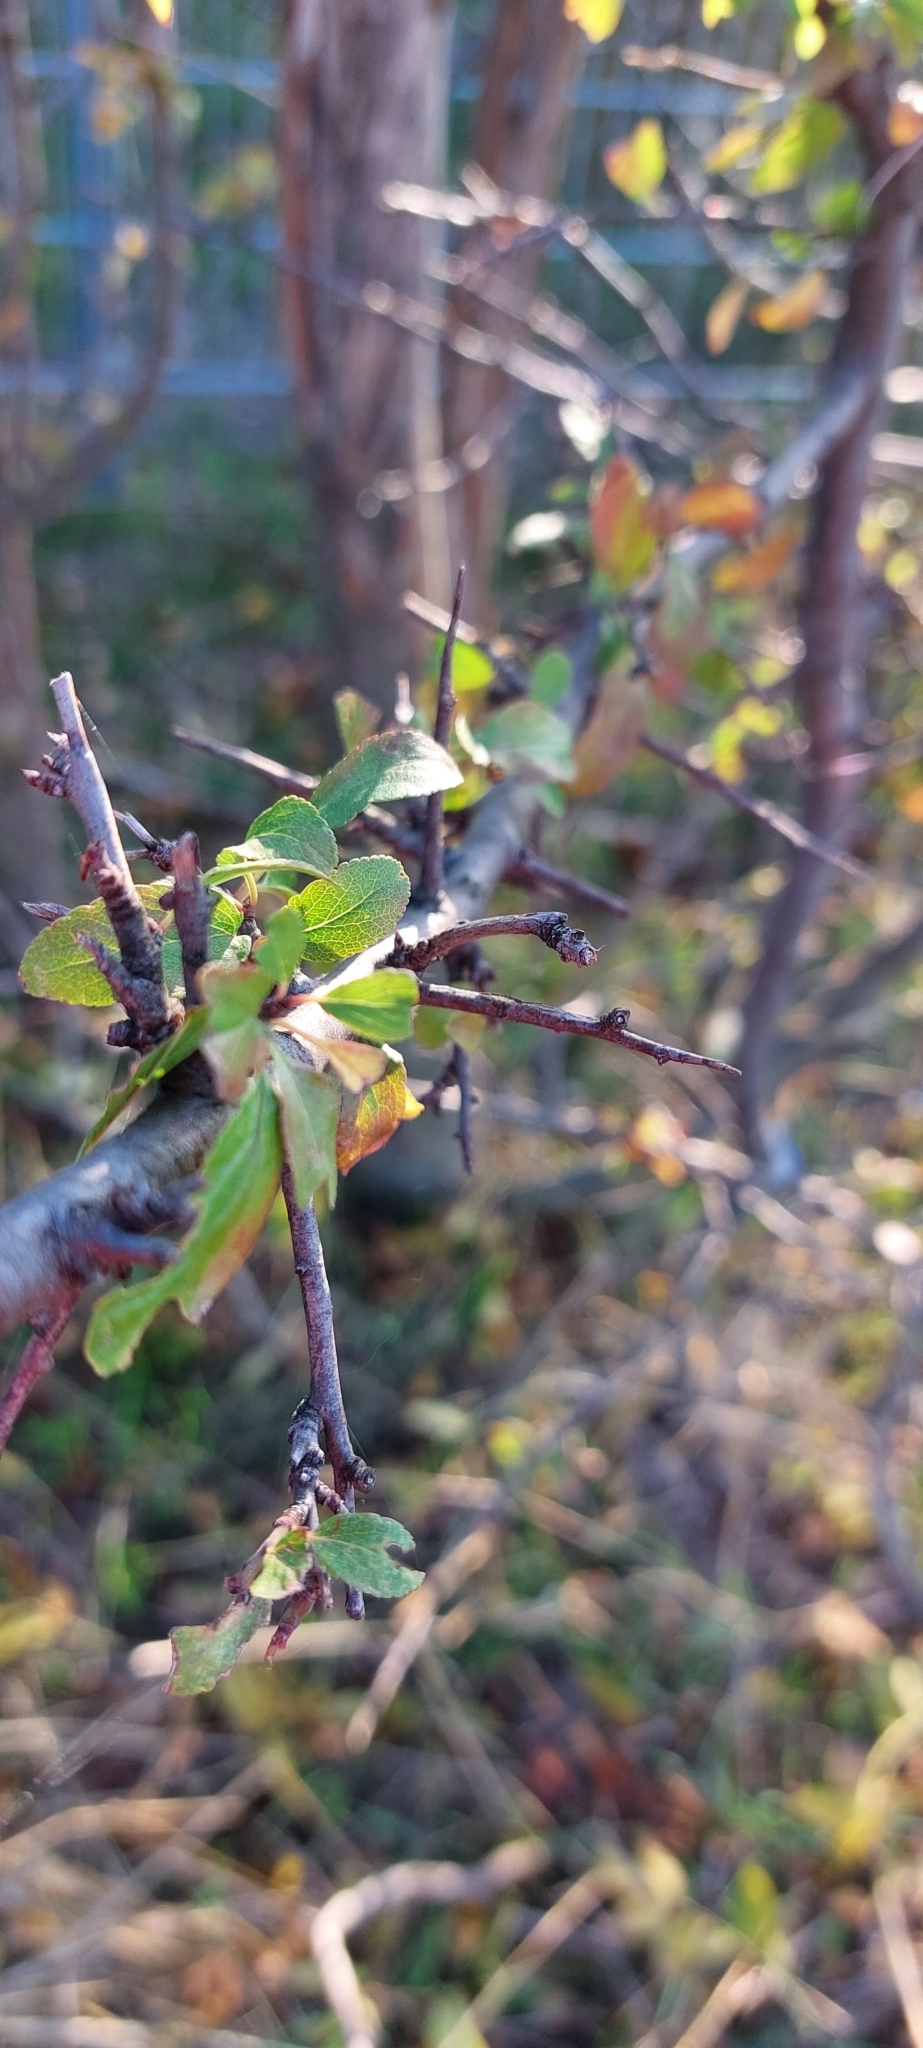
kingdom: Plantae
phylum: Tracheophyta
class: Magnoliopsida
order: Rosales
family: Rosaceae
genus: Prunus
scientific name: Prunus spinosa
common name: Blackthorn
